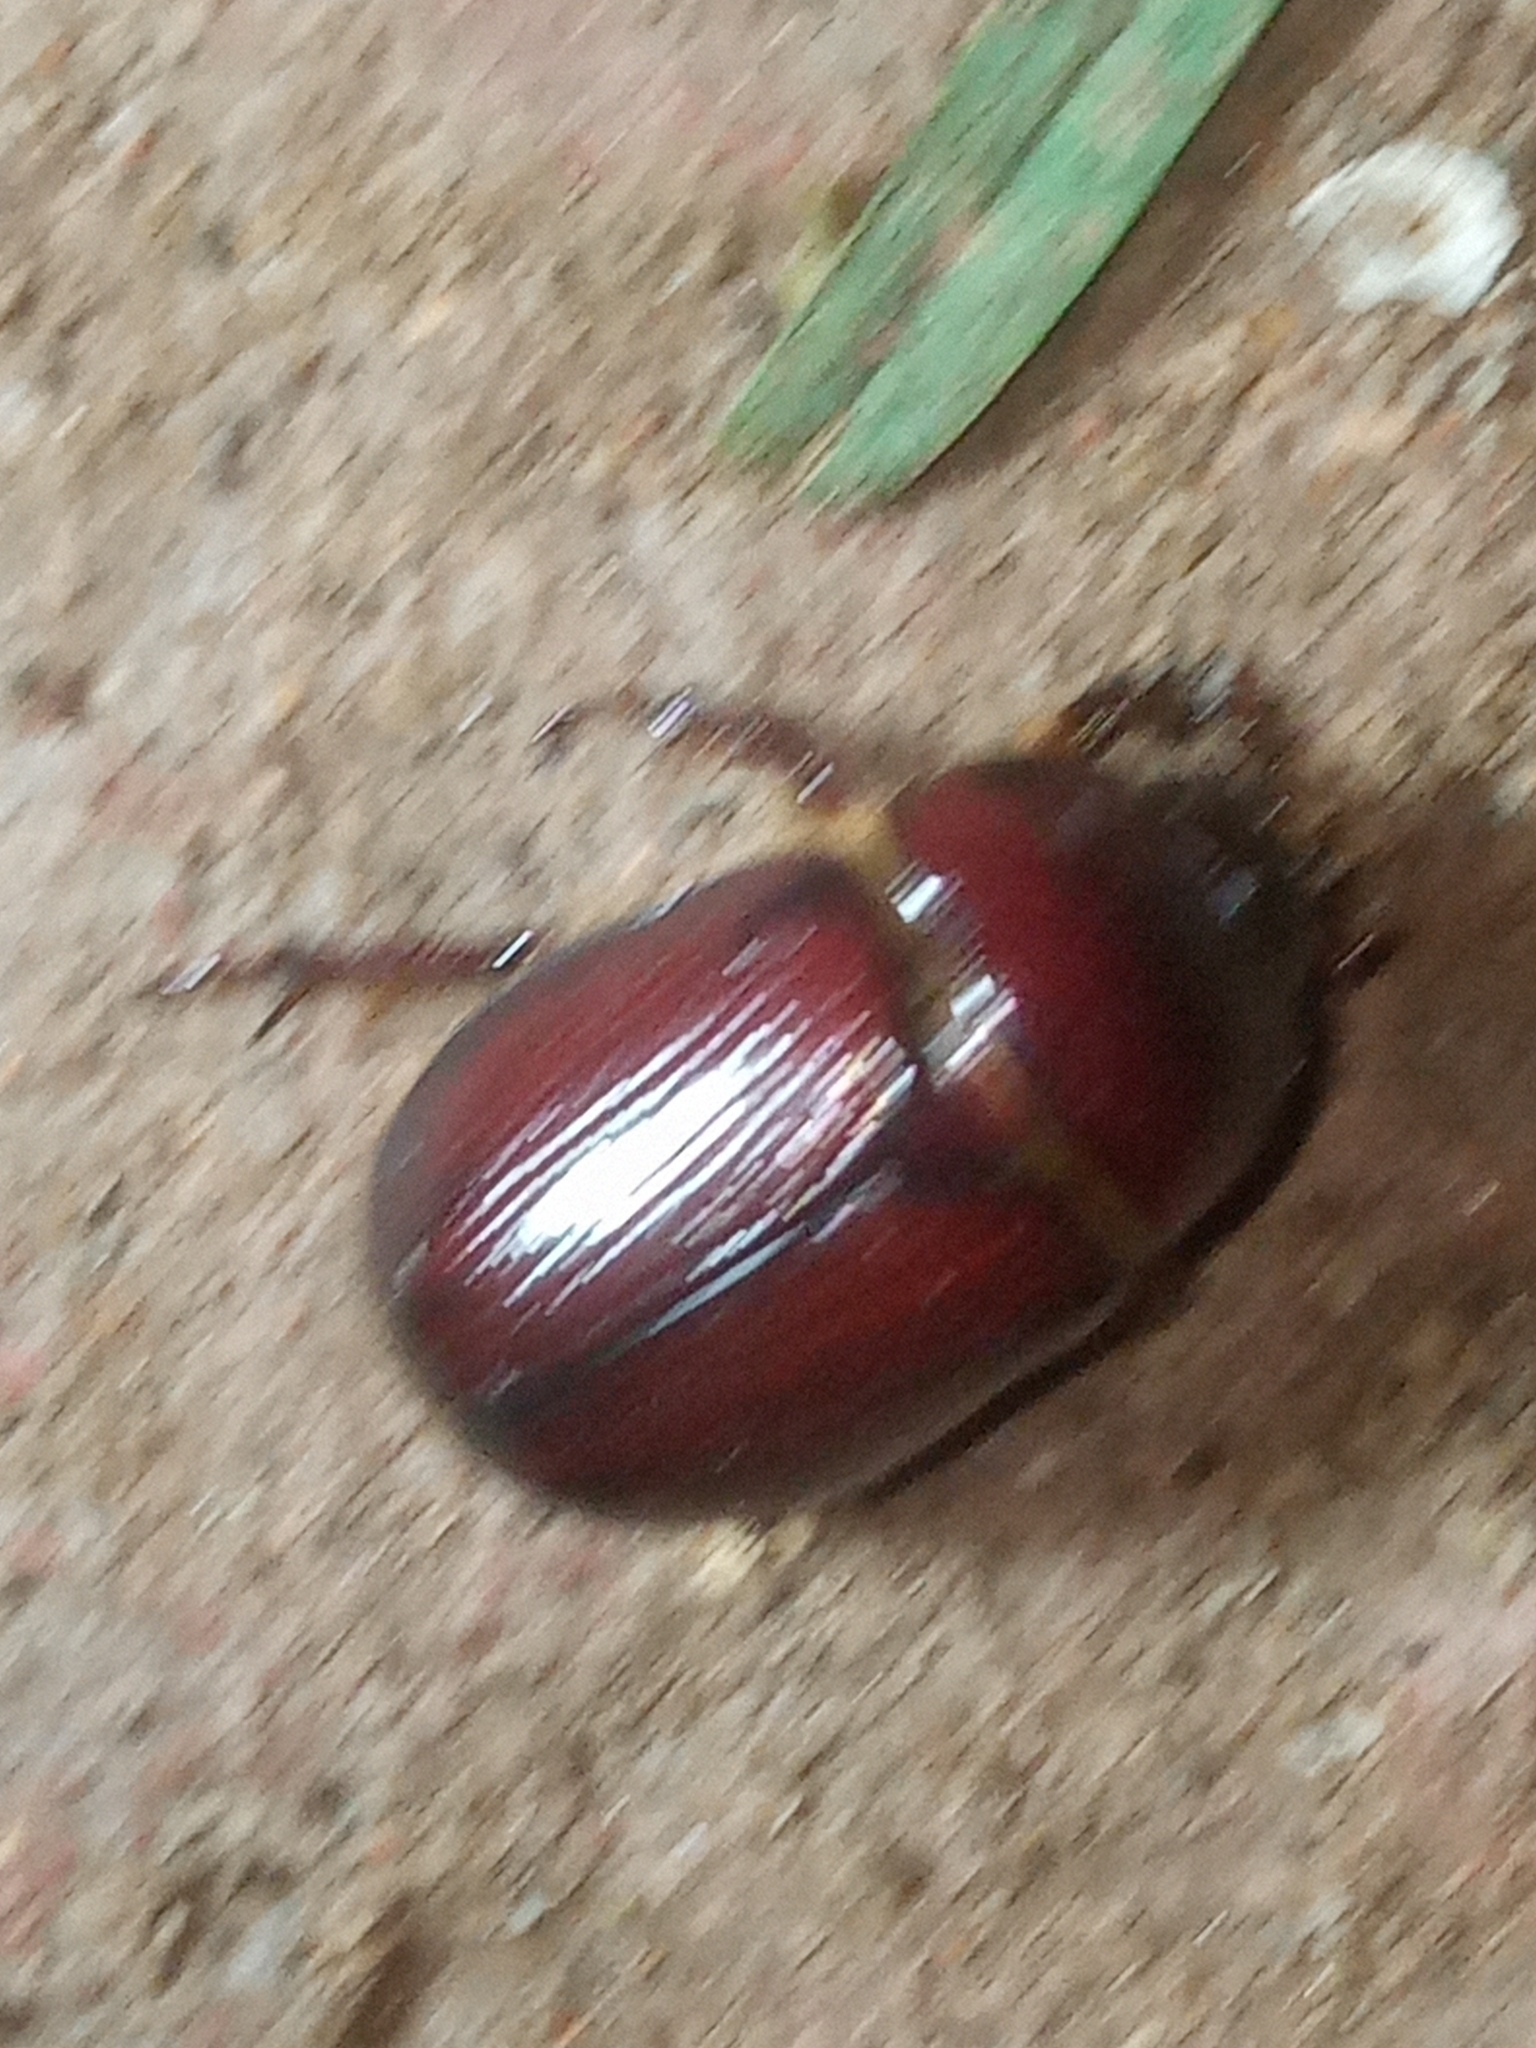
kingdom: Animalia
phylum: Arthropoda
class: Insecta
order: Coleoptera
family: Scarabaeidae
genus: Ligyrus
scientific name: Ligyrus ruginasus
